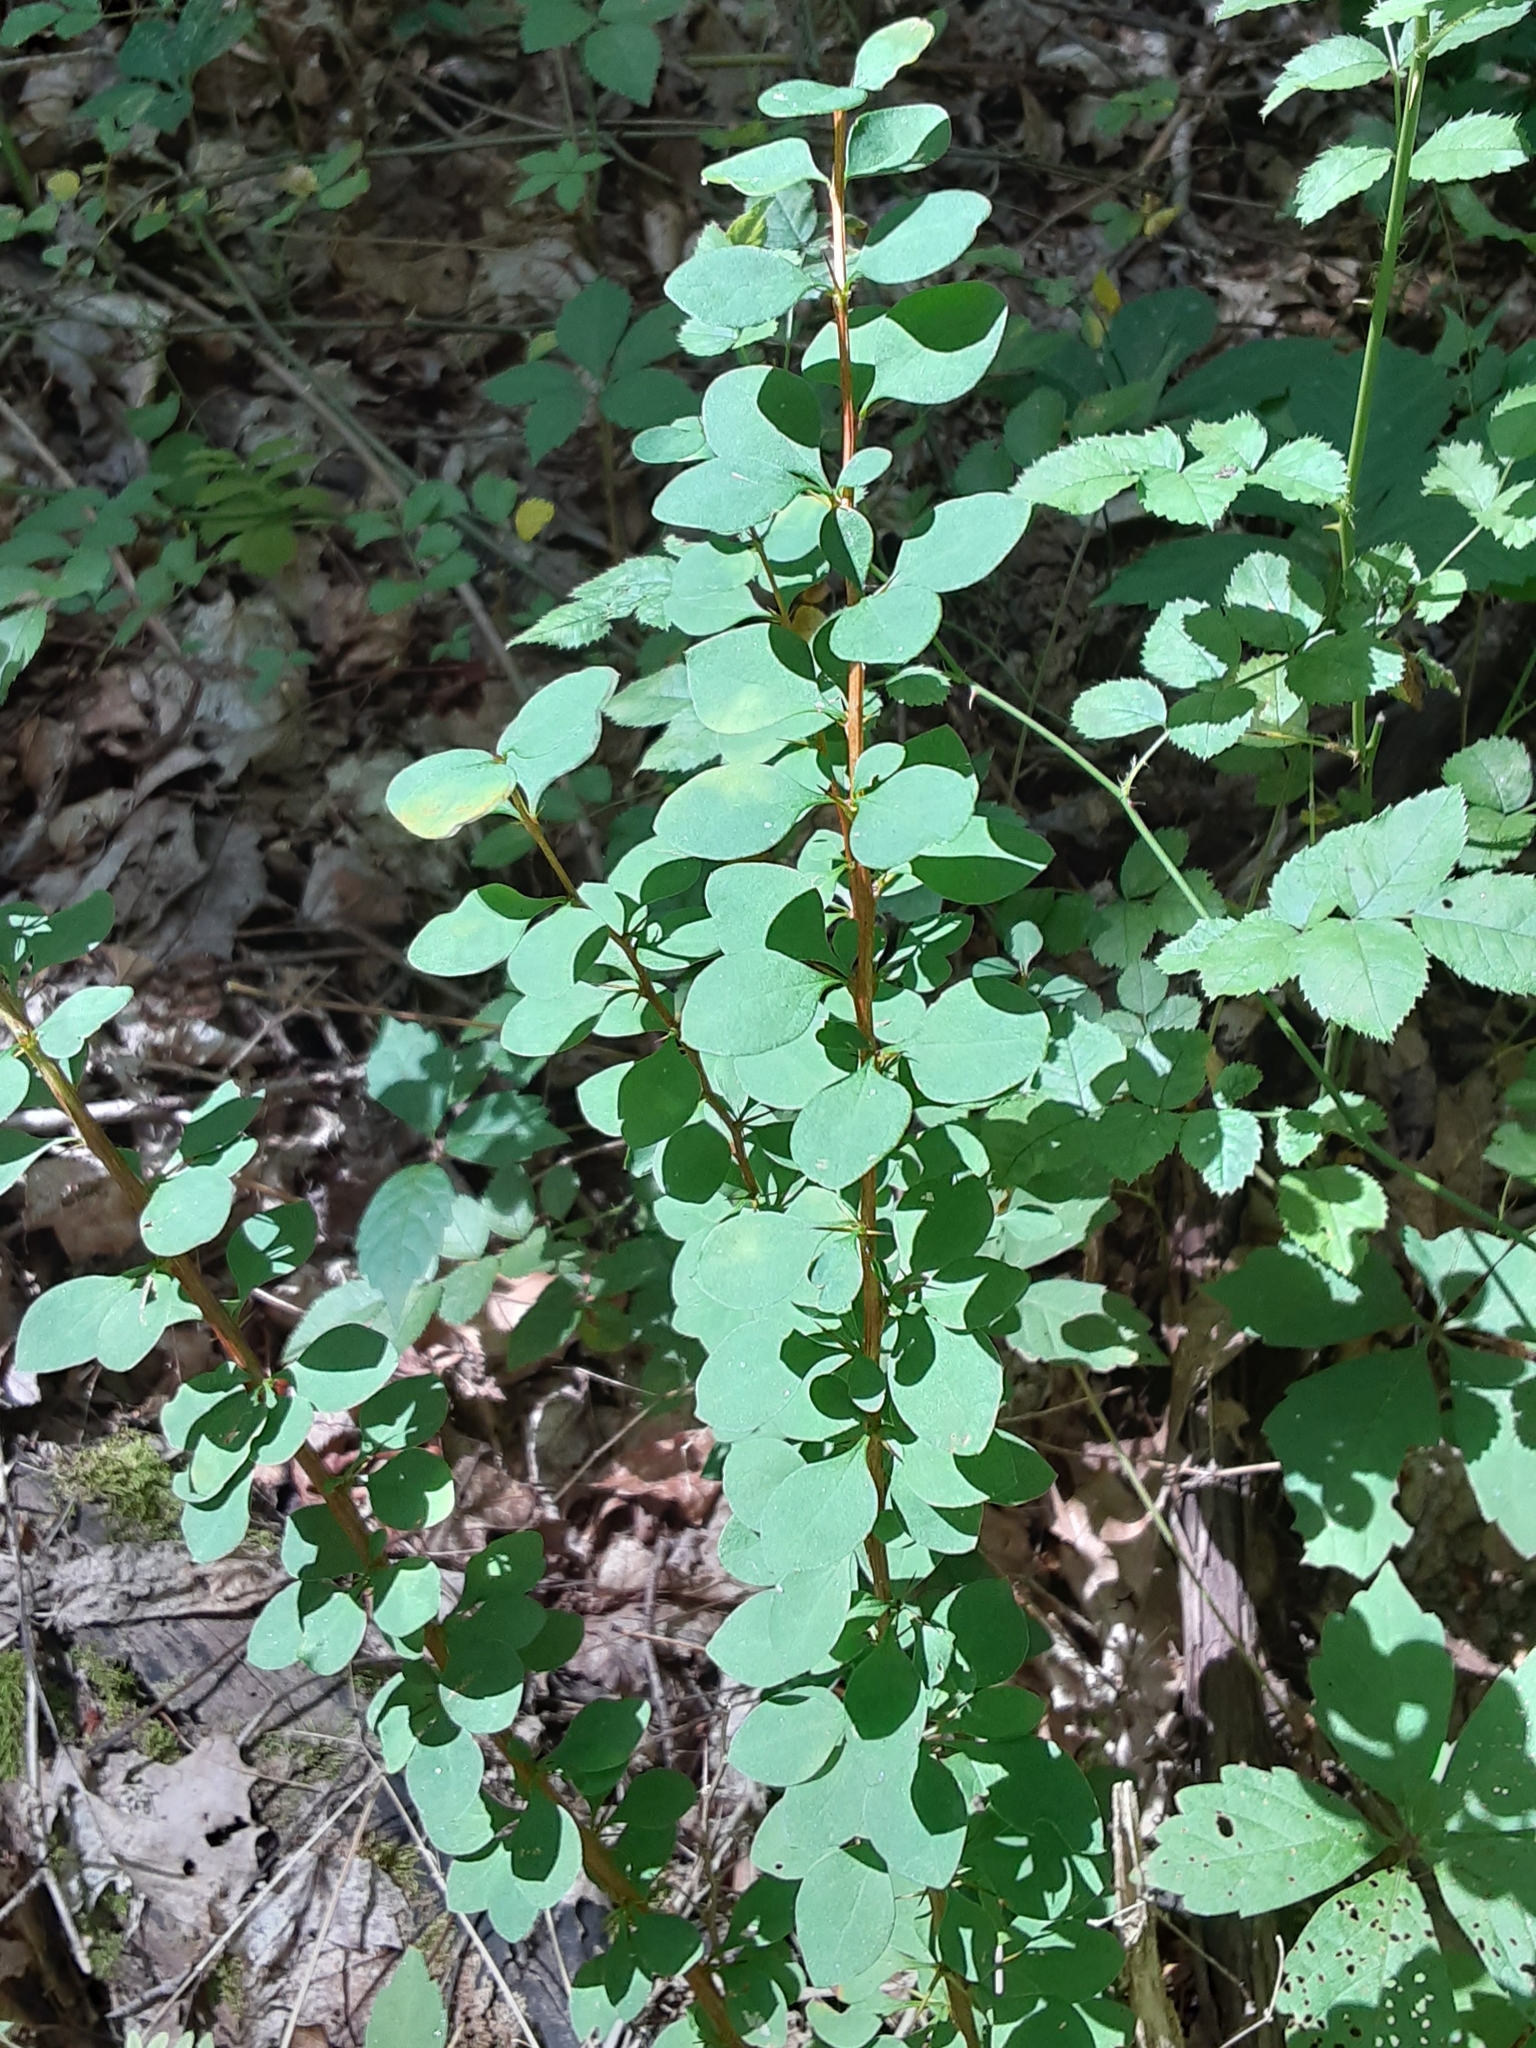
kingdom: Plantae
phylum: Tracheophyta
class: Magnoliopsida
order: Ranunculales
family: Berberidaceae
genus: Berberis
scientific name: Berberis thunbergii
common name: Japanese barberry
